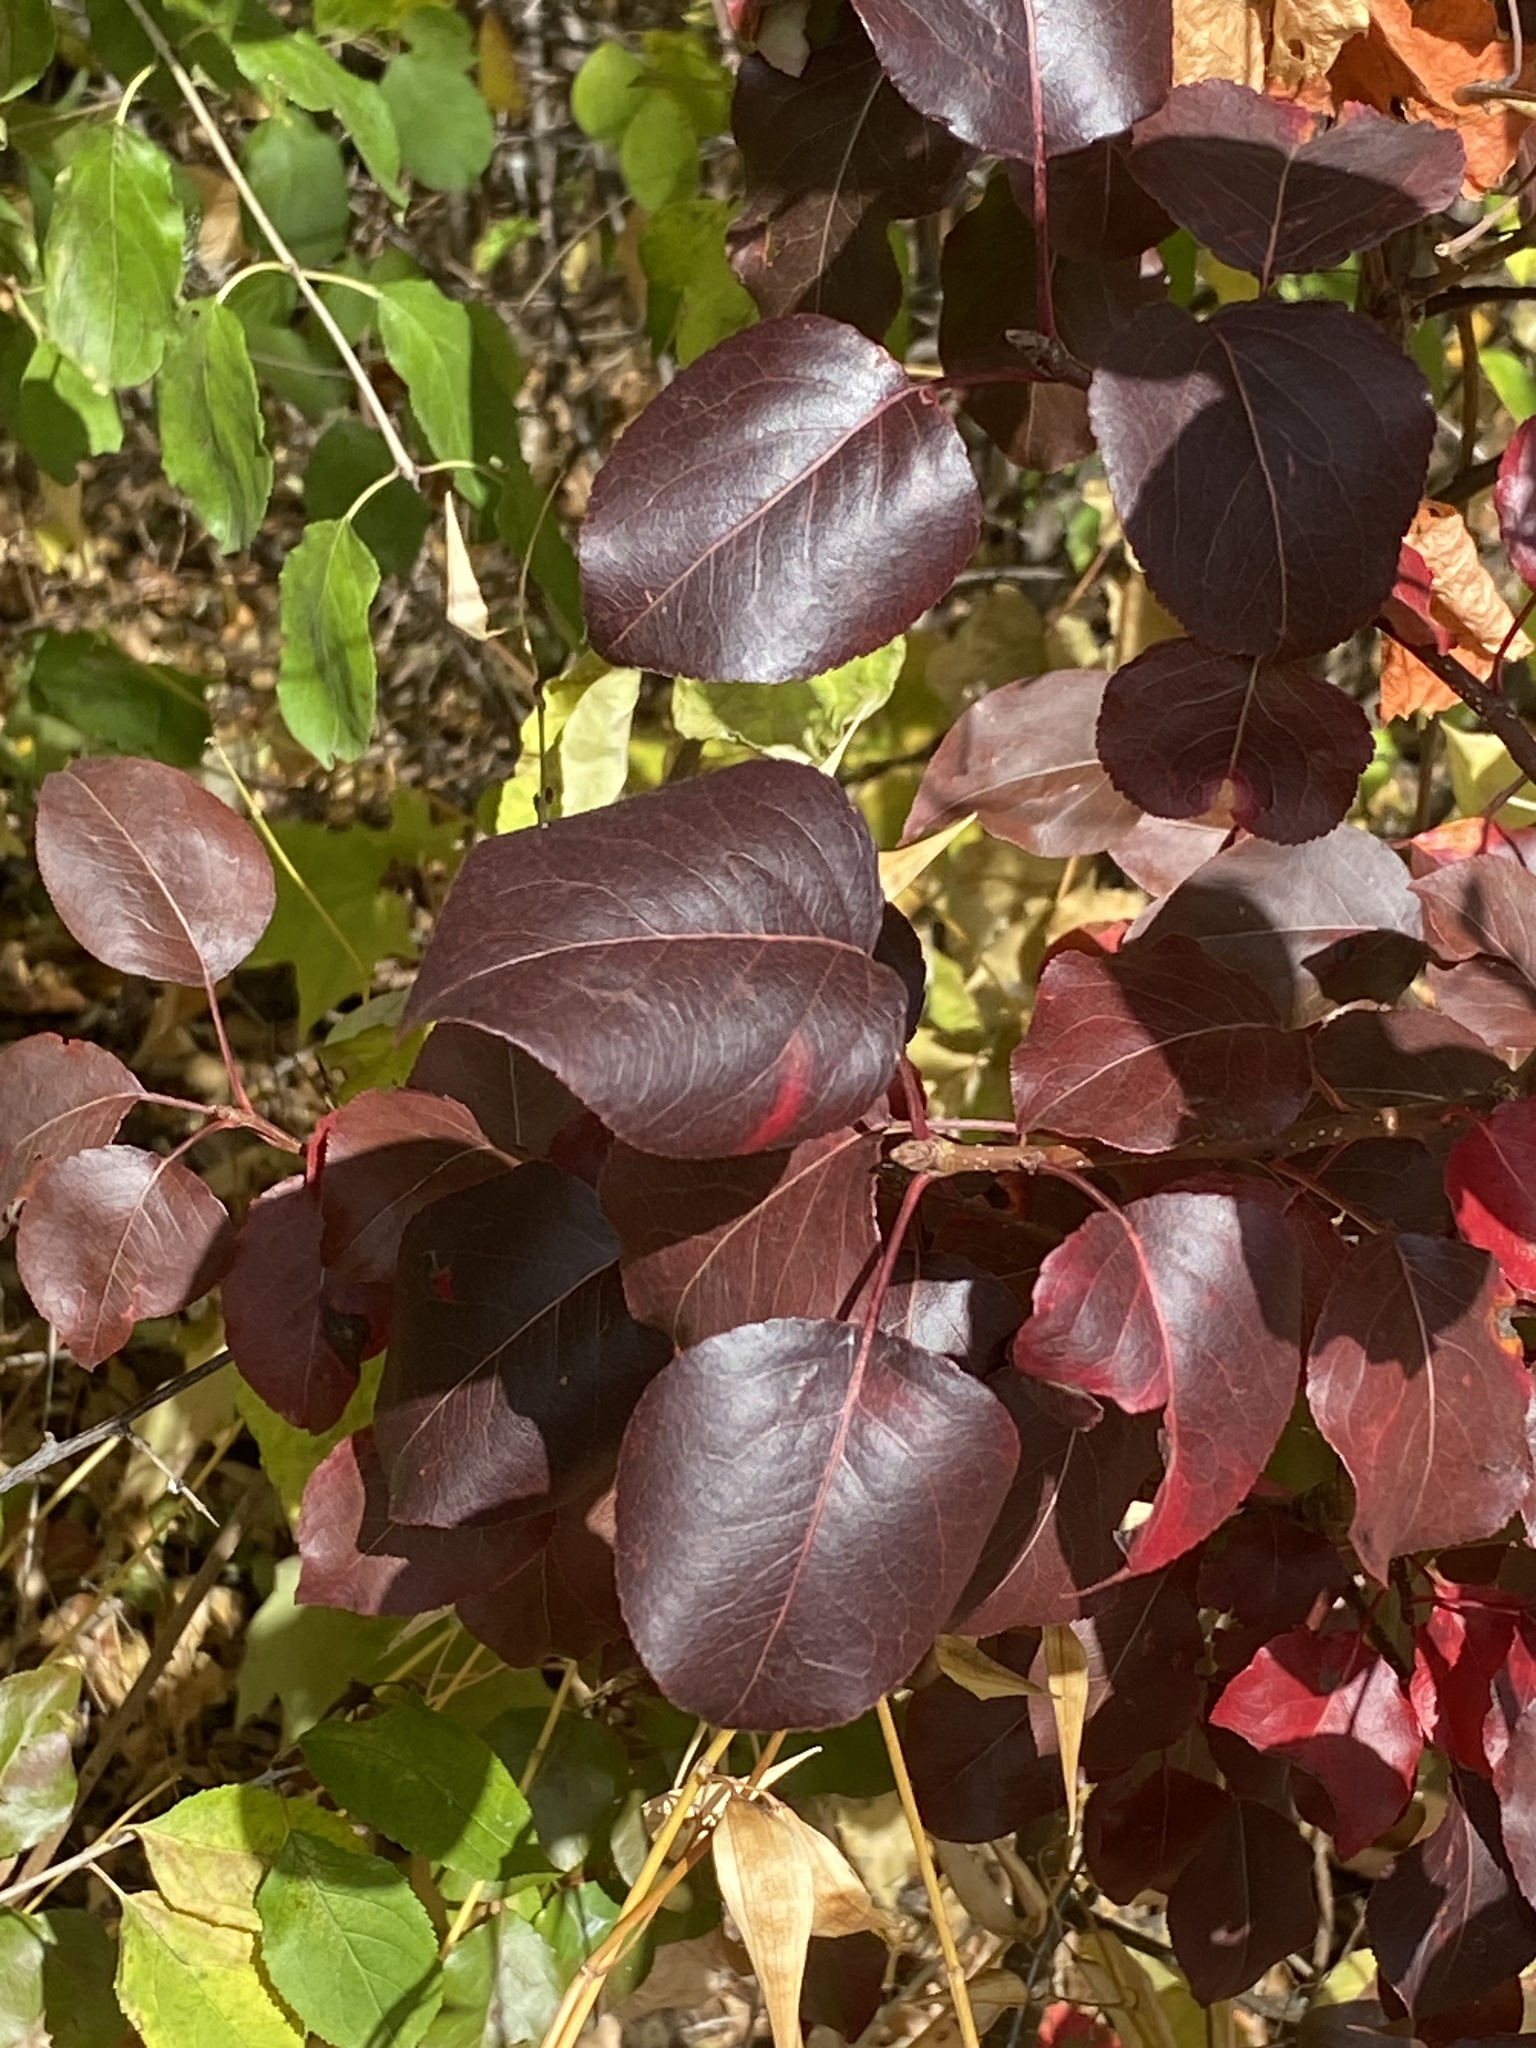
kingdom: Plantae
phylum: Tracheophyta
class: Magnoliopsida
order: Rosales
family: Rosaceae
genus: Pyrus
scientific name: Pyrus calleryana
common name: Callery pear
